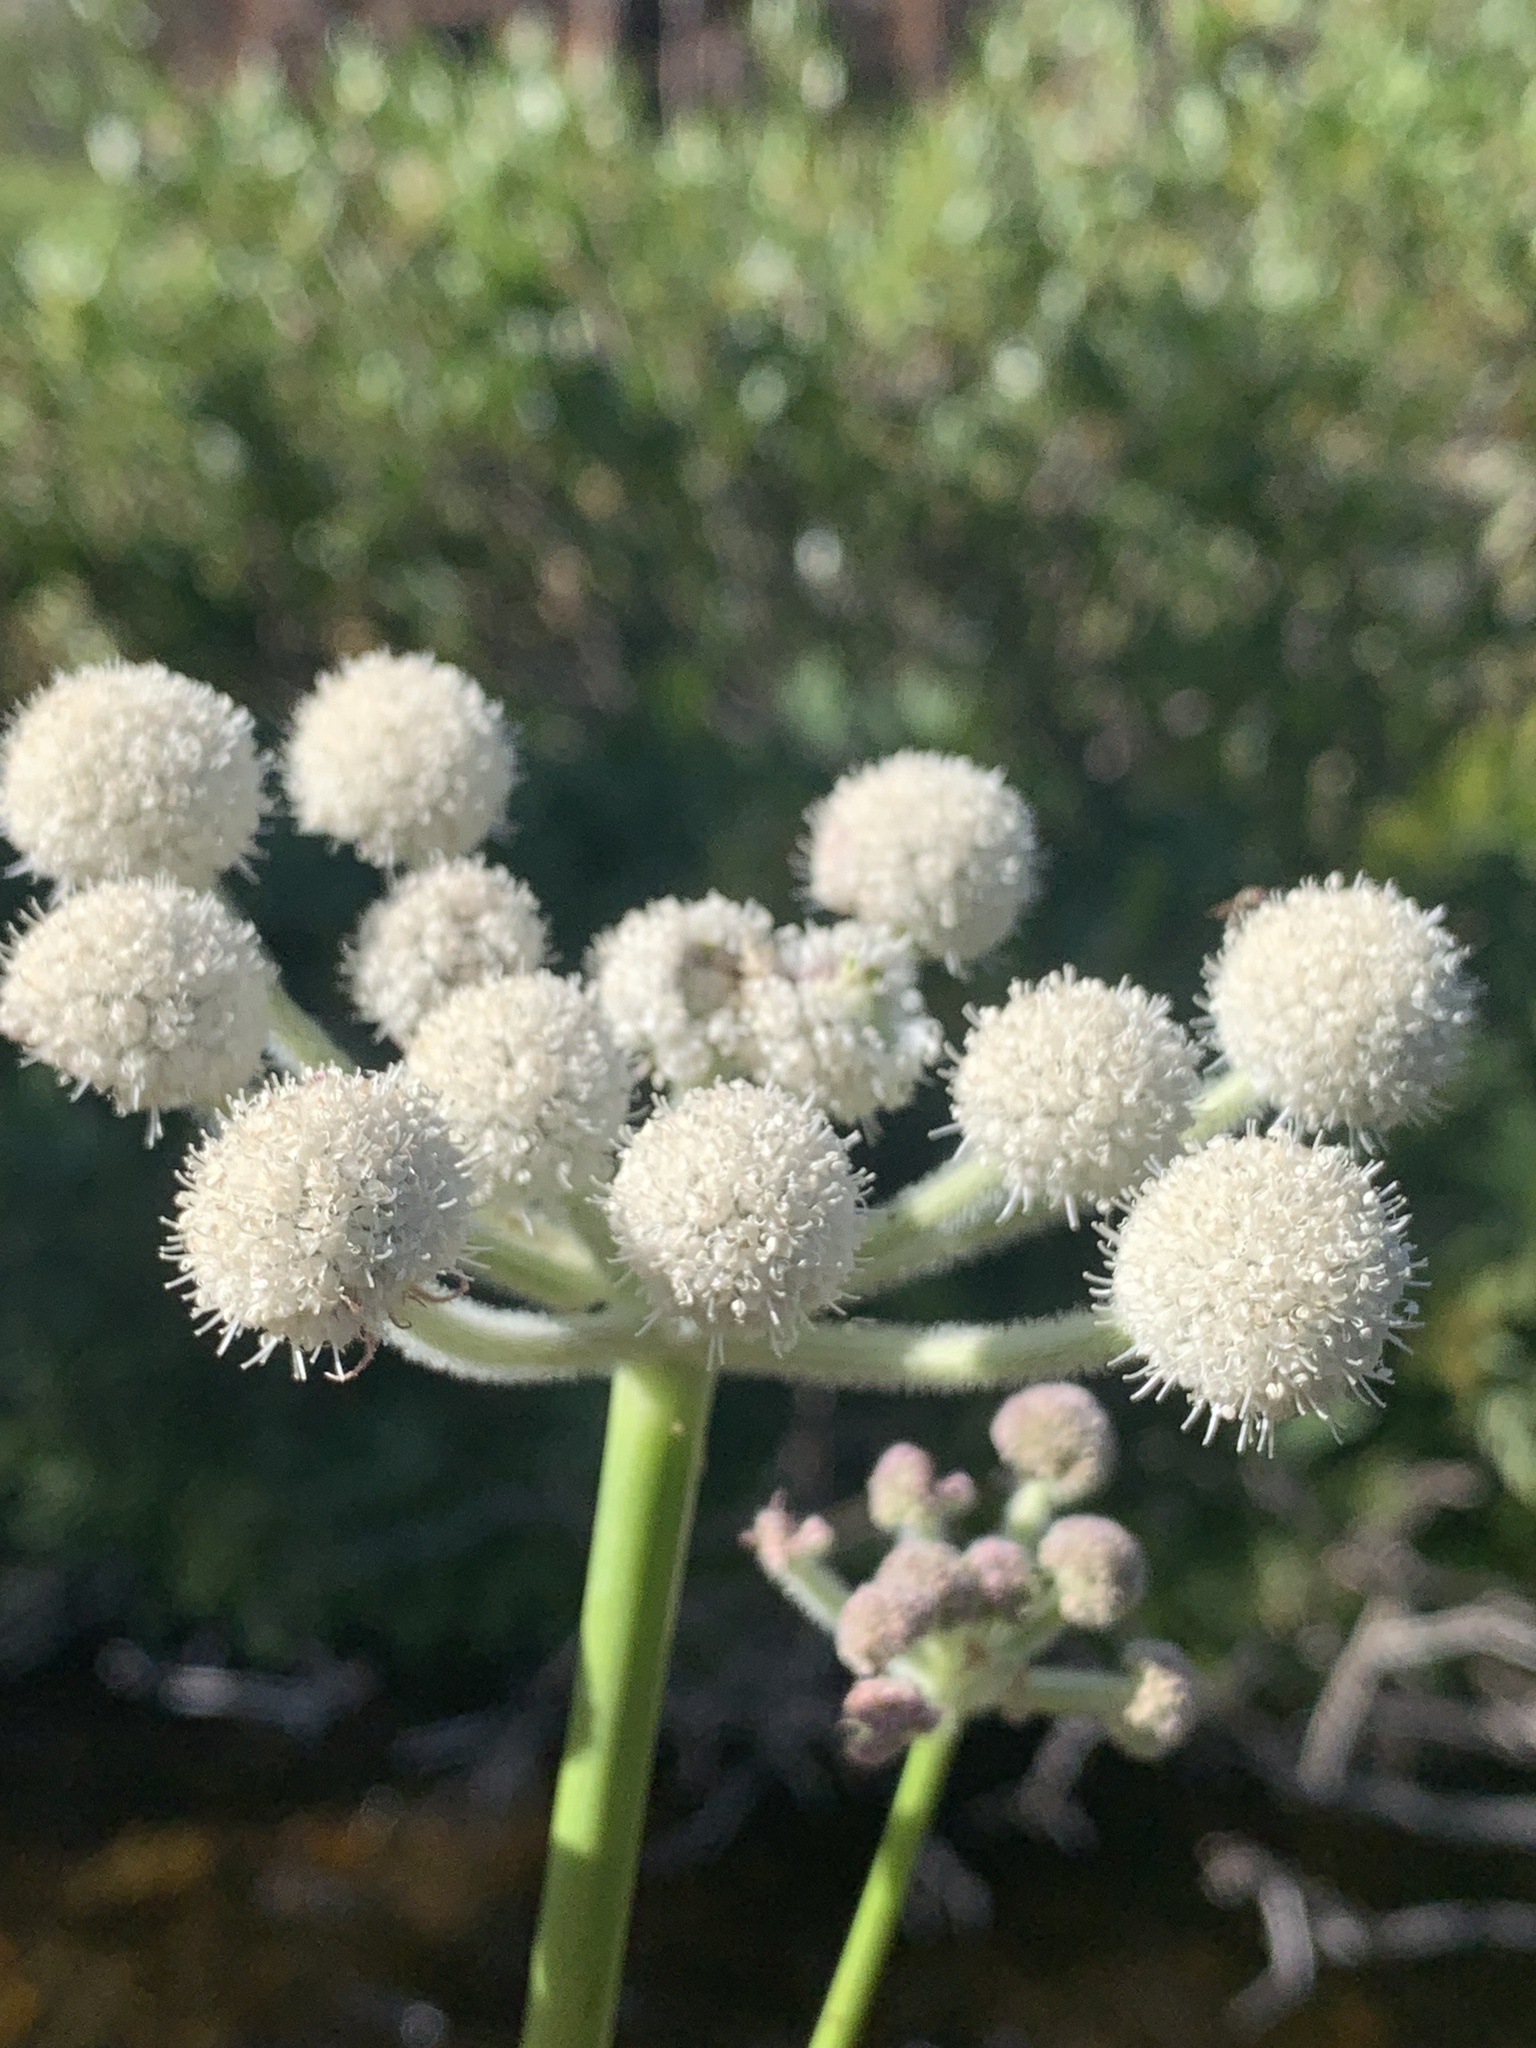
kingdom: Plantae
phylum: Tracheophyta
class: Magnoliopsida
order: Apiales
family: Apiaceae
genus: Angelica
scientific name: Angelica capitellata
